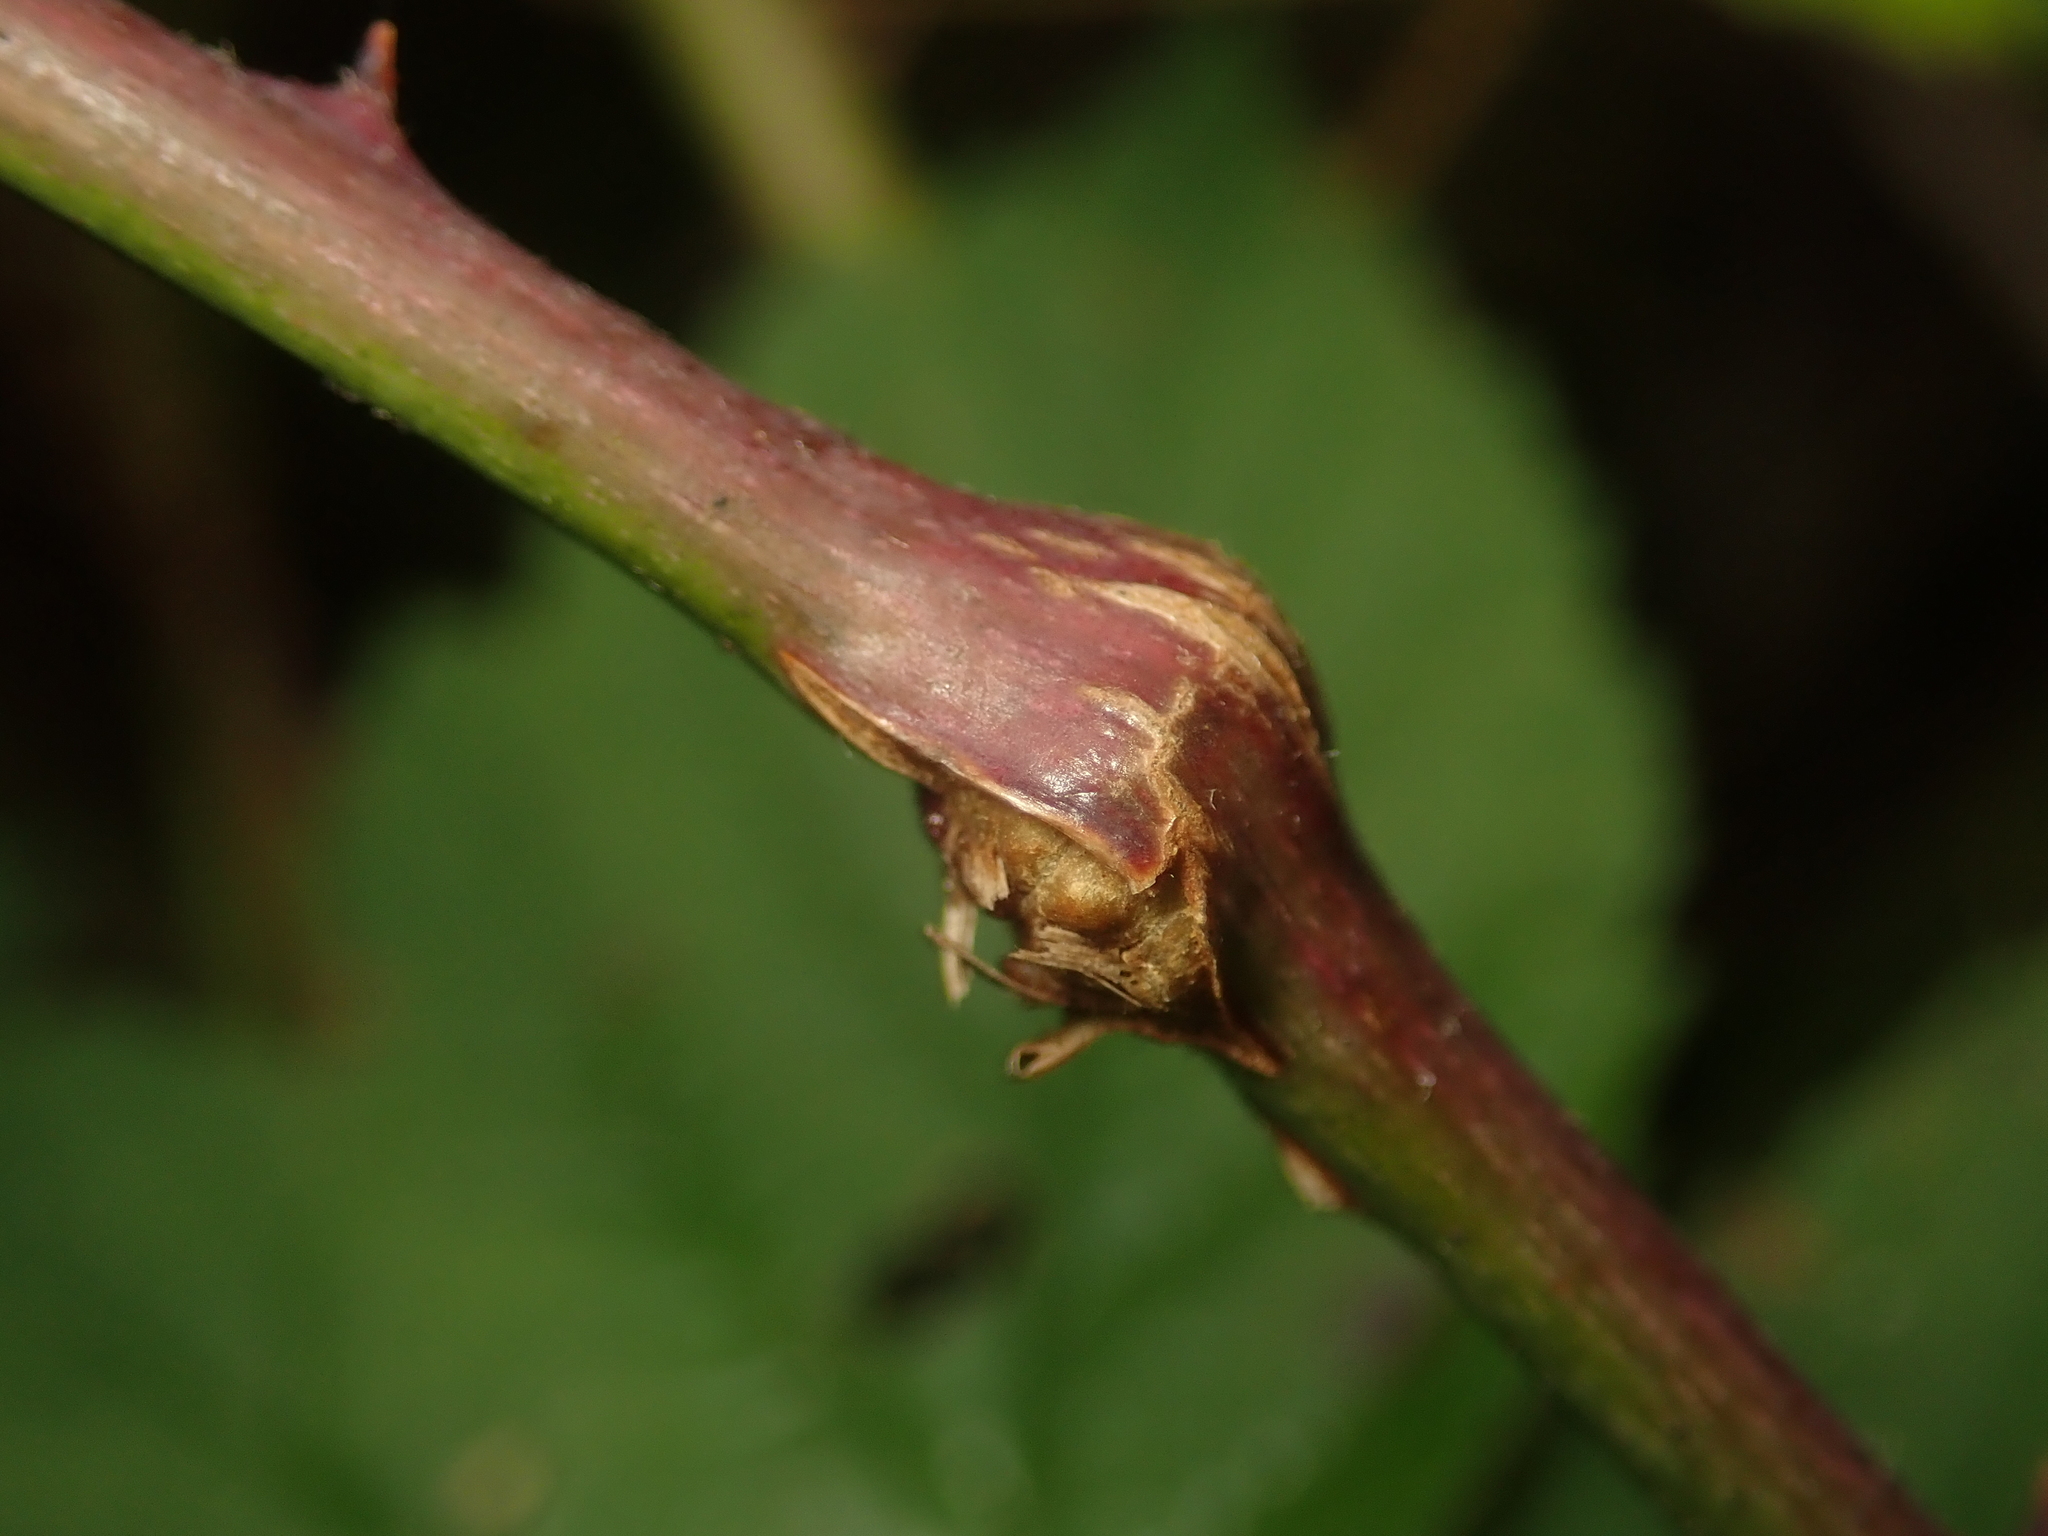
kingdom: Animalia
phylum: Arthropoda
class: Insecta
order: Diptera
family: Cecidomyiidae
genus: Lasioptera
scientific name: Lasioptera rubi
